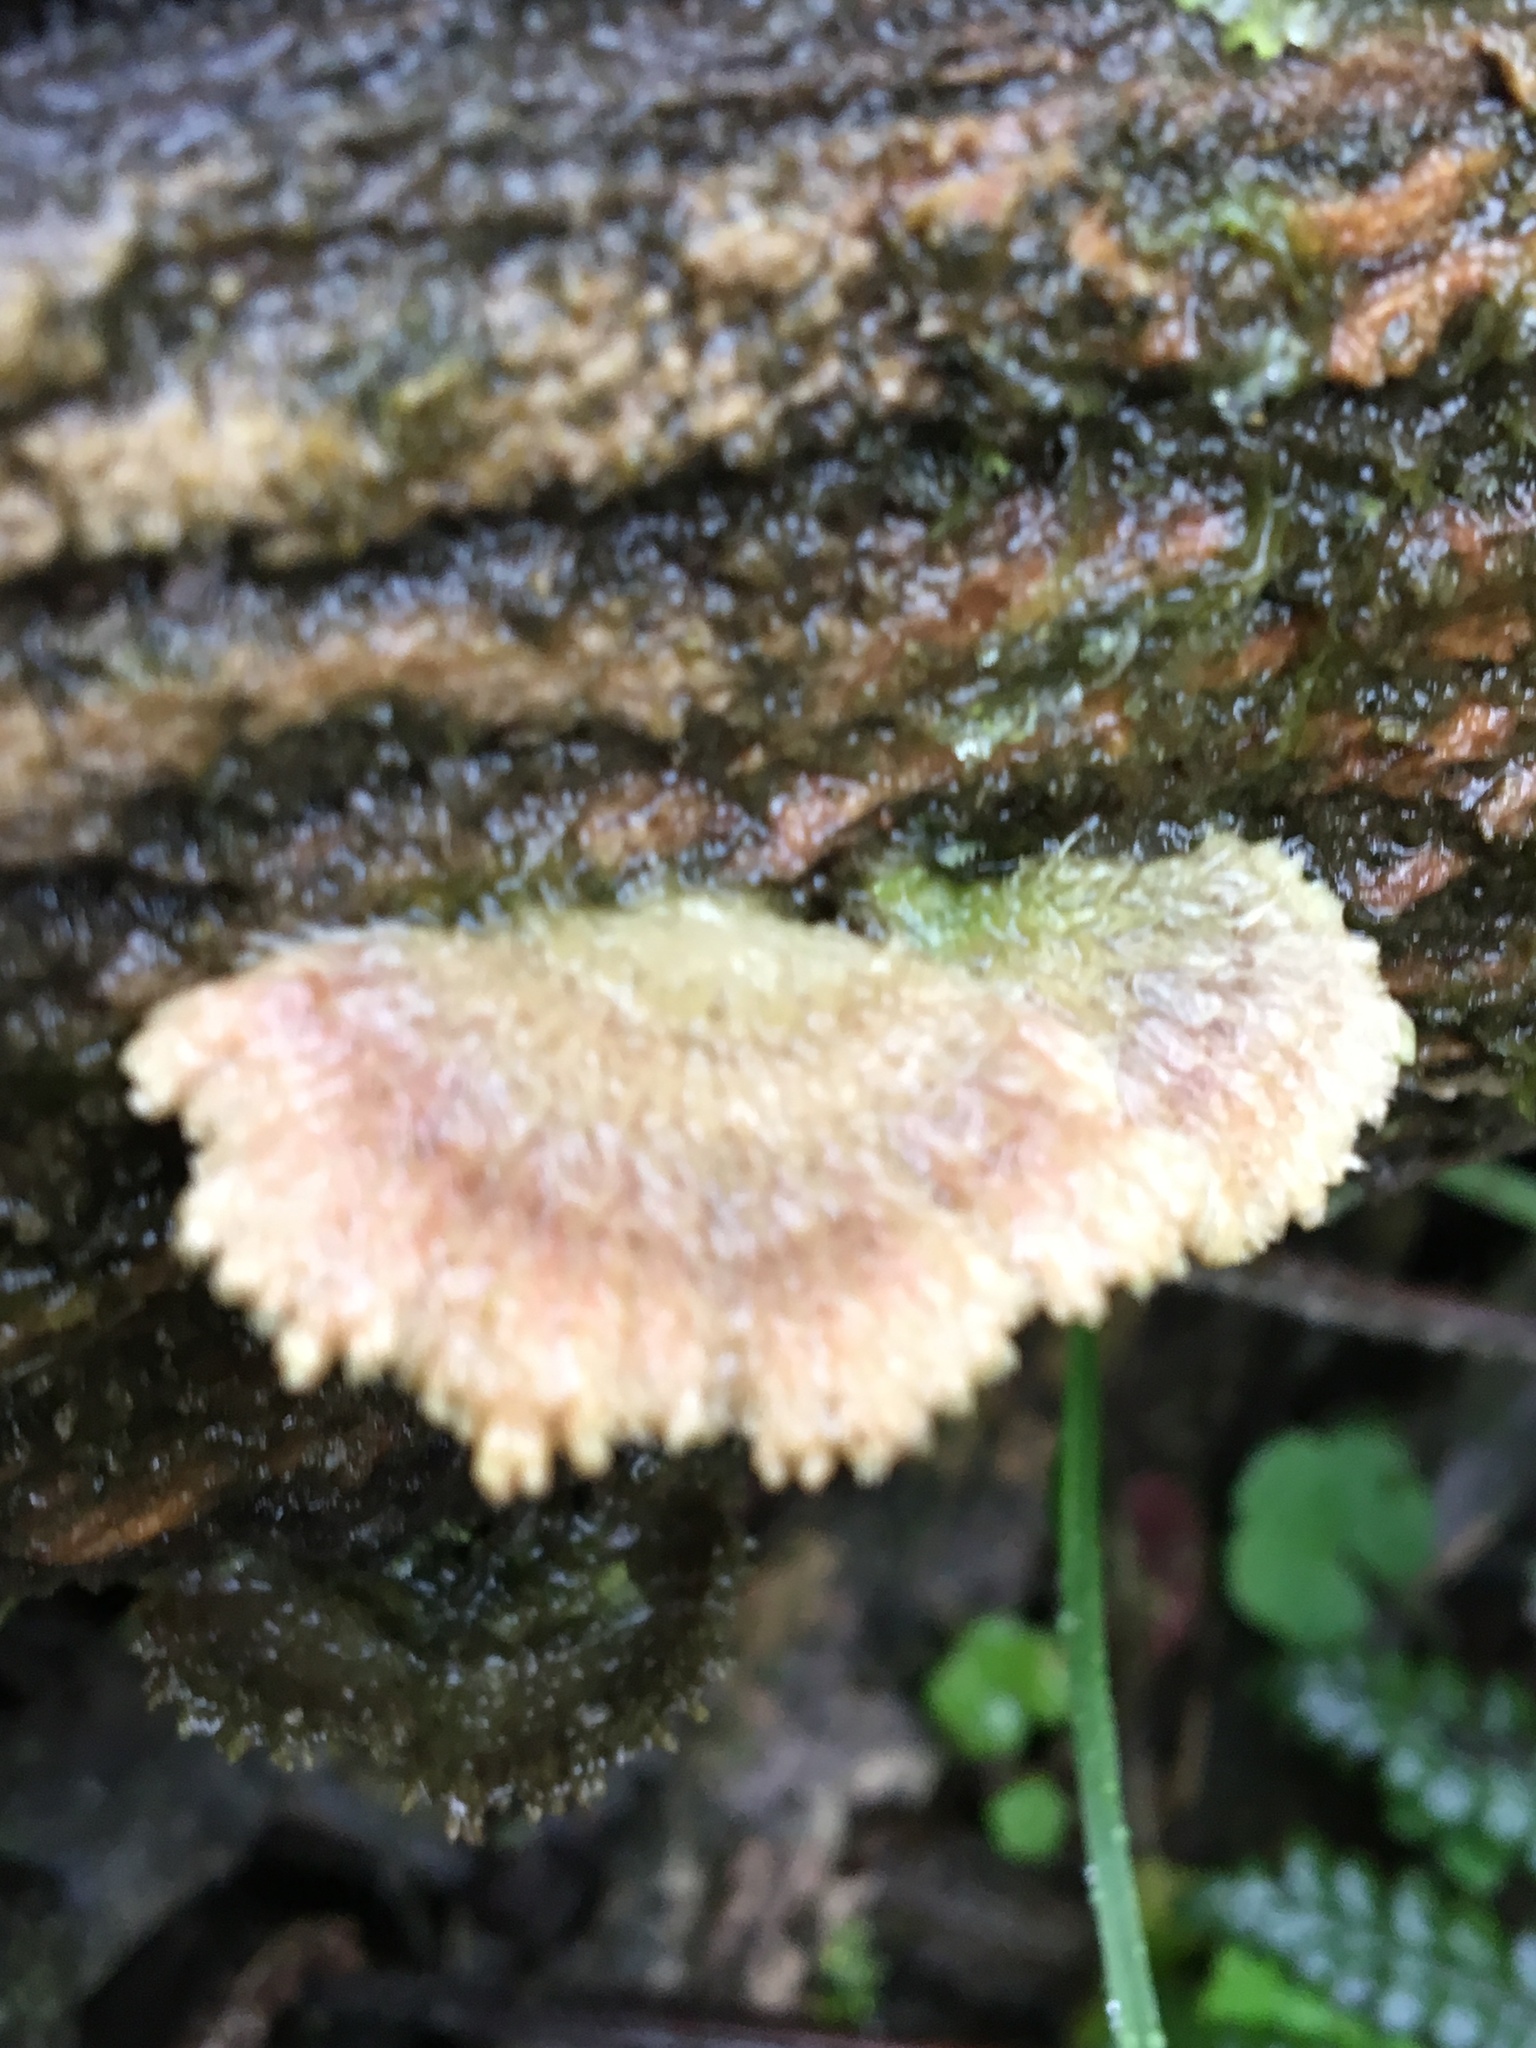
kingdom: Fungi
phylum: Basidiomycota
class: Agaricomycetes
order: Agaricales
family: Schizophyllaceae
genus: Schizophyllum
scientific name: Schizophyllum commune
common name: Common porecrust
